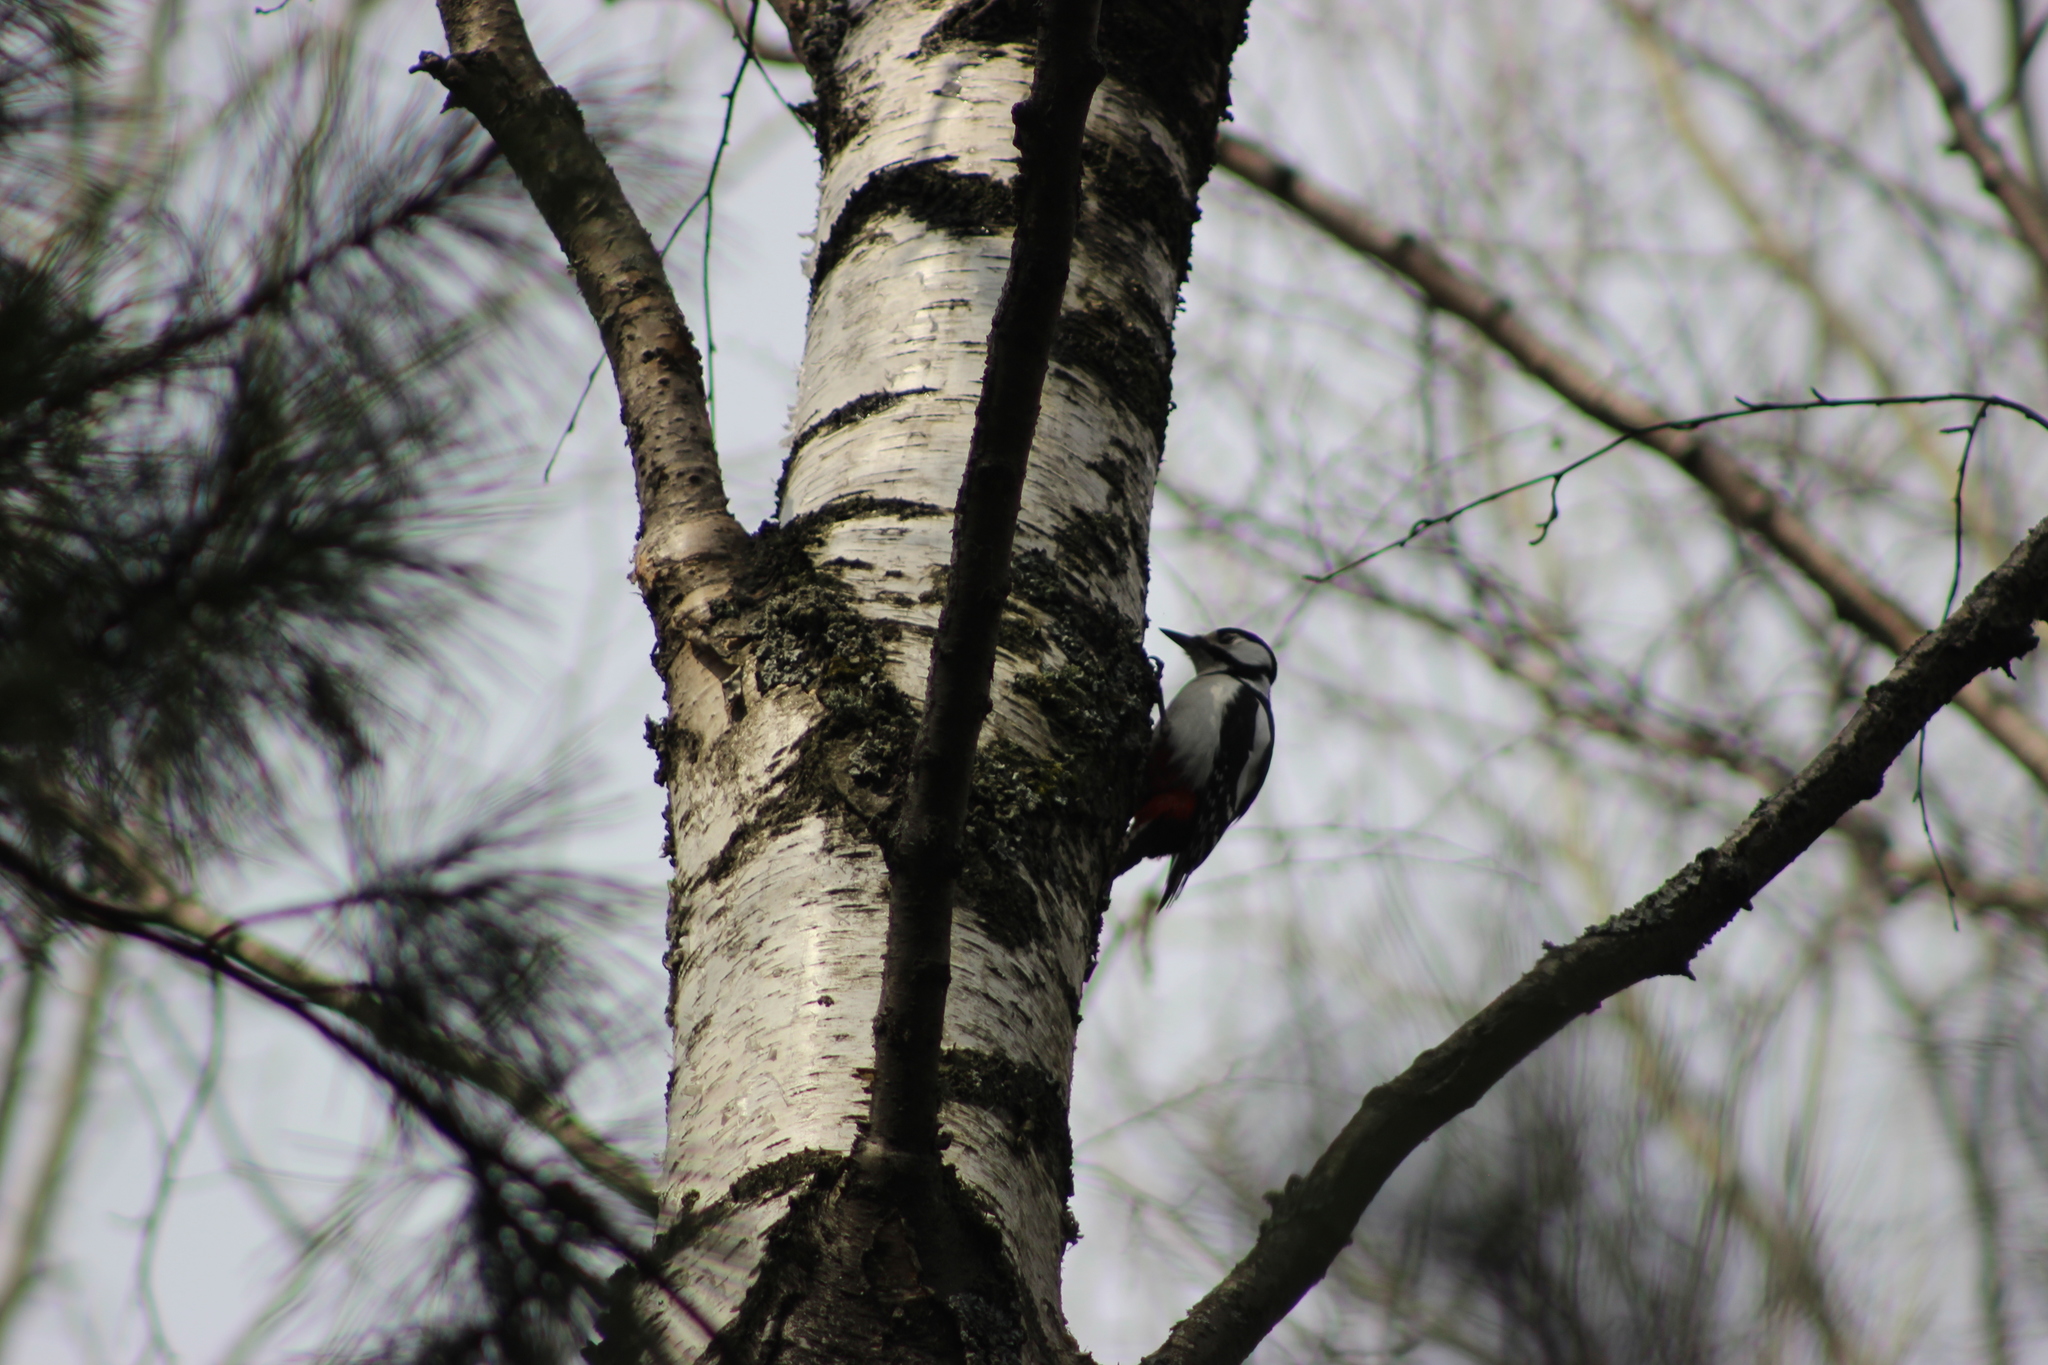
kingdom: Animalia
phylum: Chordata
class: Aves
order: Piciformes
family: Picidae
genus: Dendrocopos
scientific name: Dendrocopos major
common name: Great spotted woodpecker
